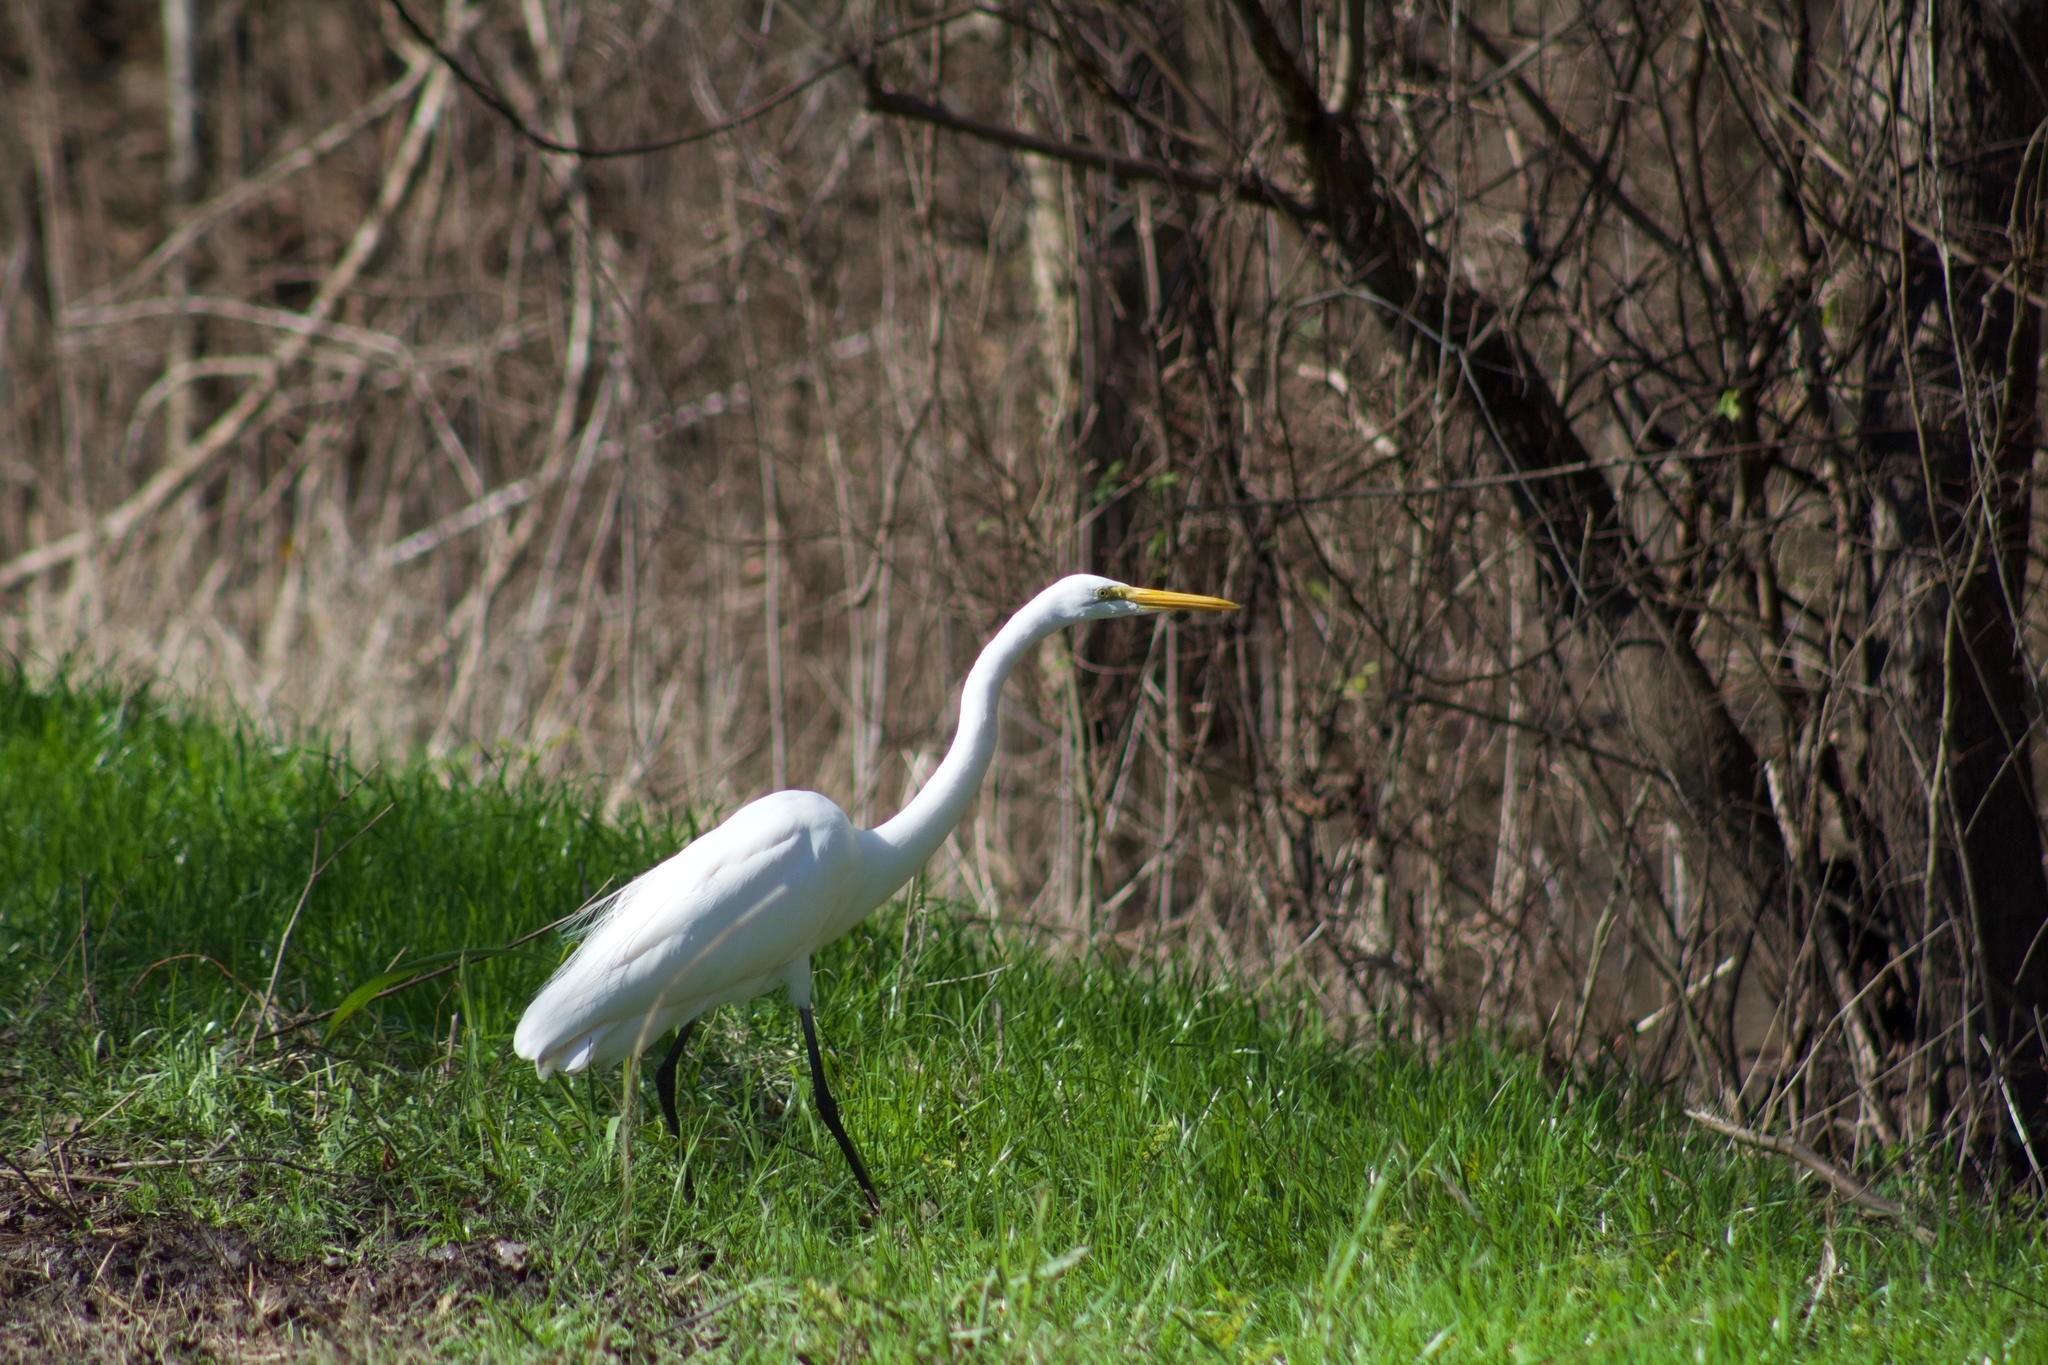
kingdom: Animalia
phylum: Chordata
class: Aves
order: Pelecaniformes
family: Ardeidae
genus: Ardea
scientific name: Ardea alba
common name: Great egret
